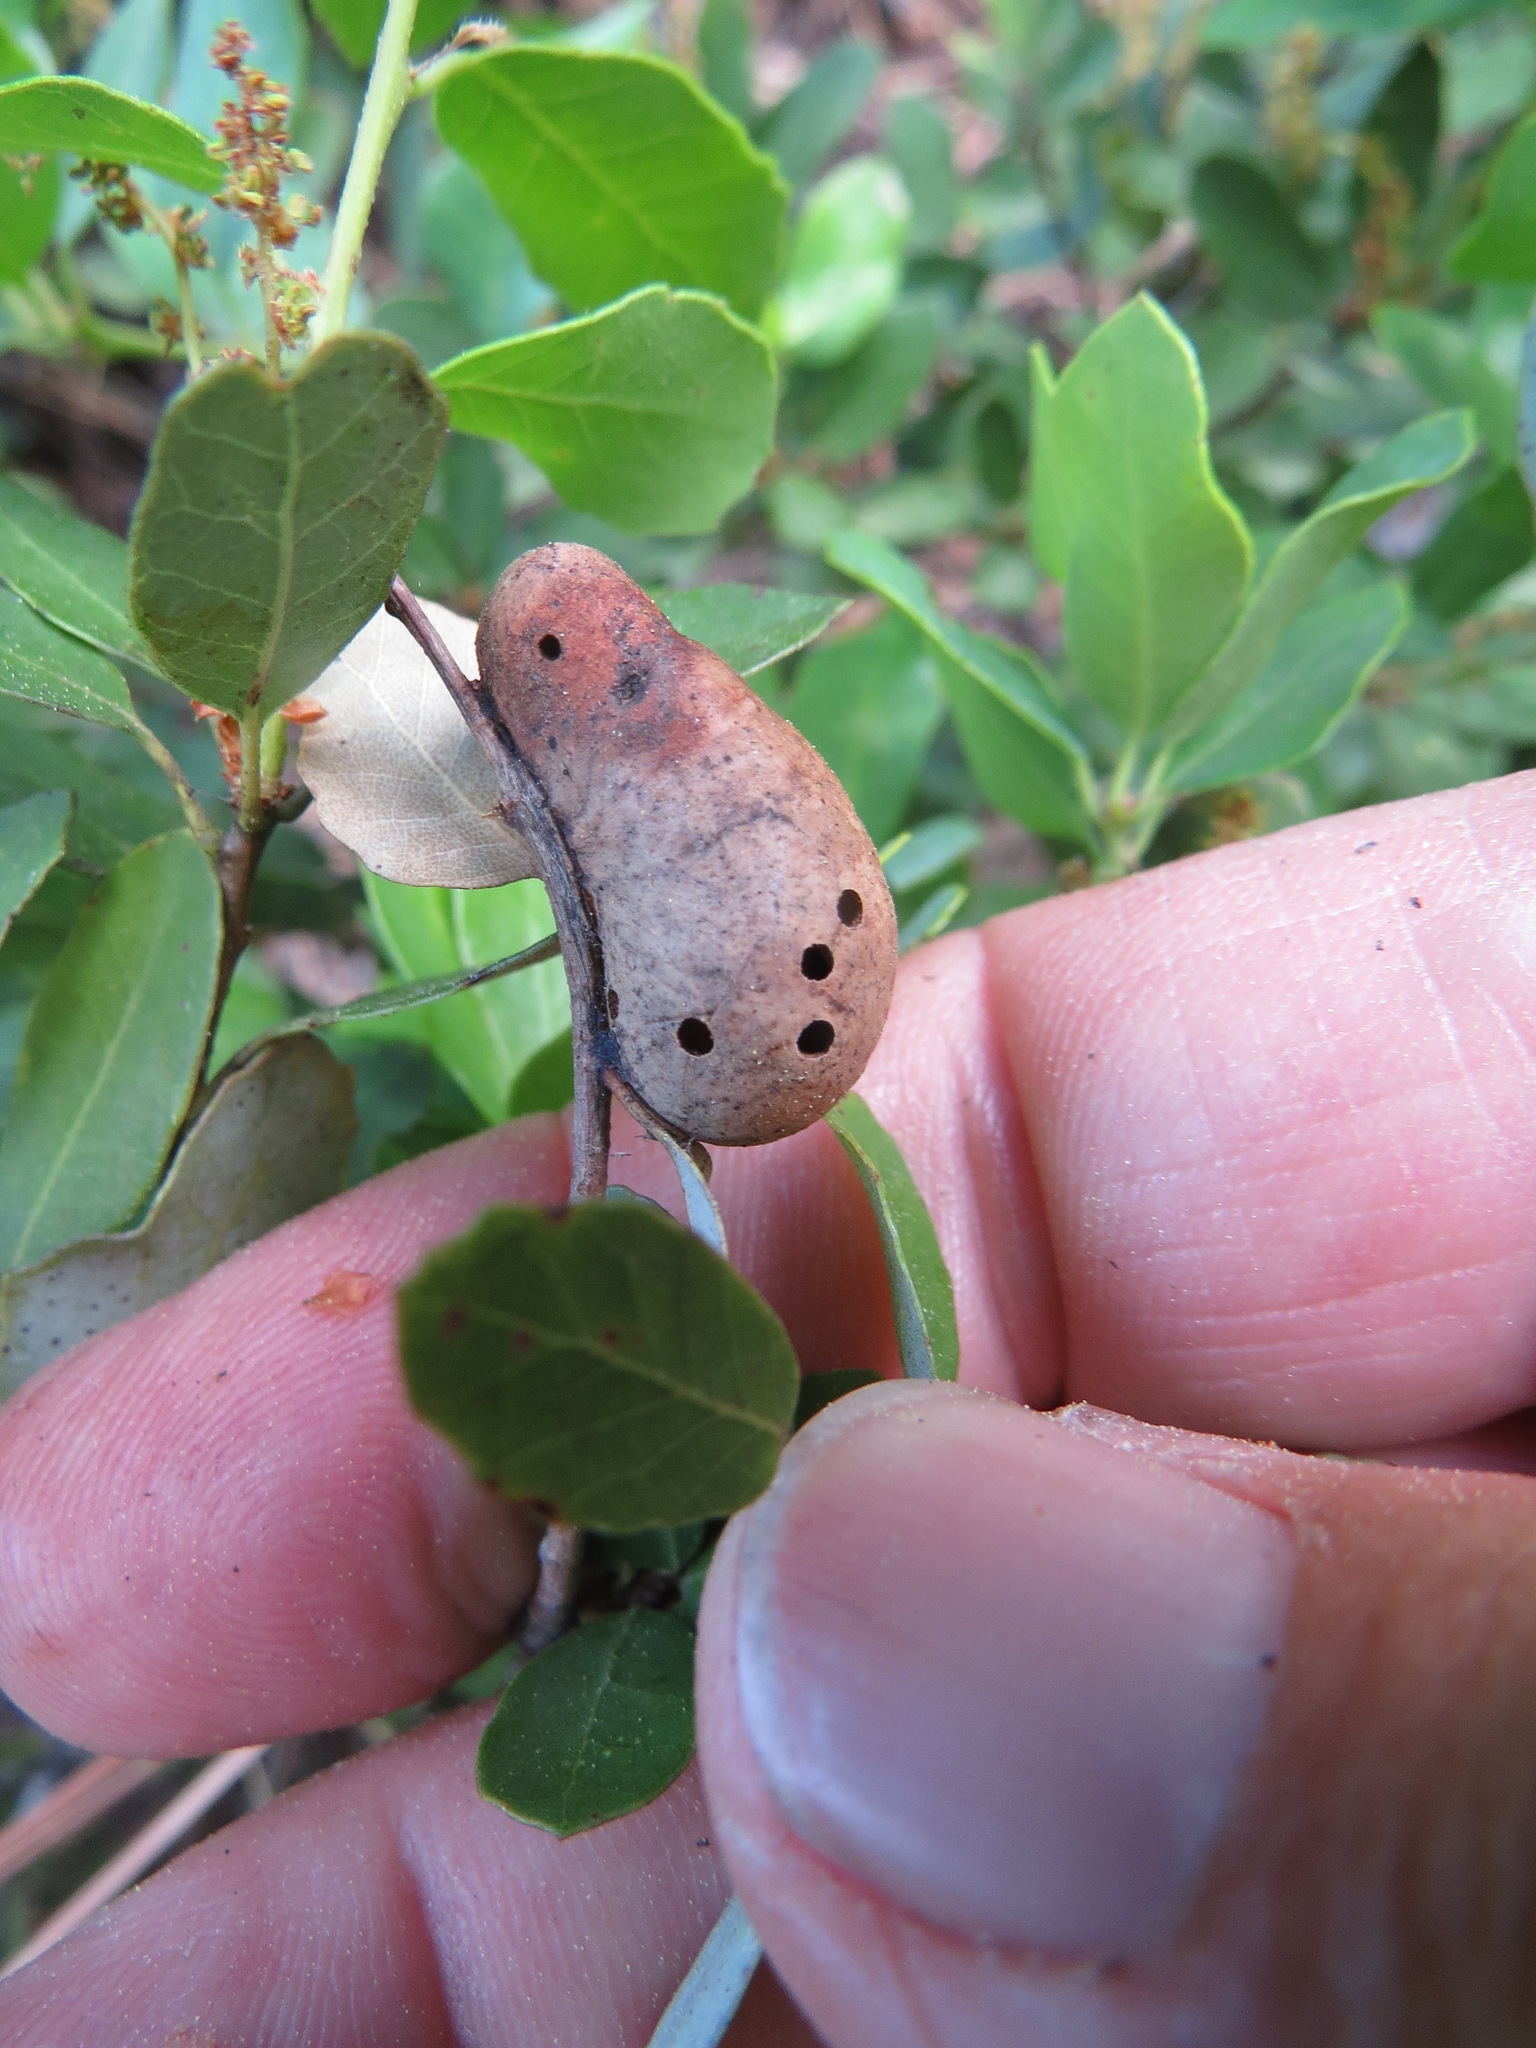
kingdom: Animalia
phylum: Arthropoda
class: Insecta
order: Hymenoptera
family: Cynipidae
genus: Disholandricus
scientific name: Disholandricus
